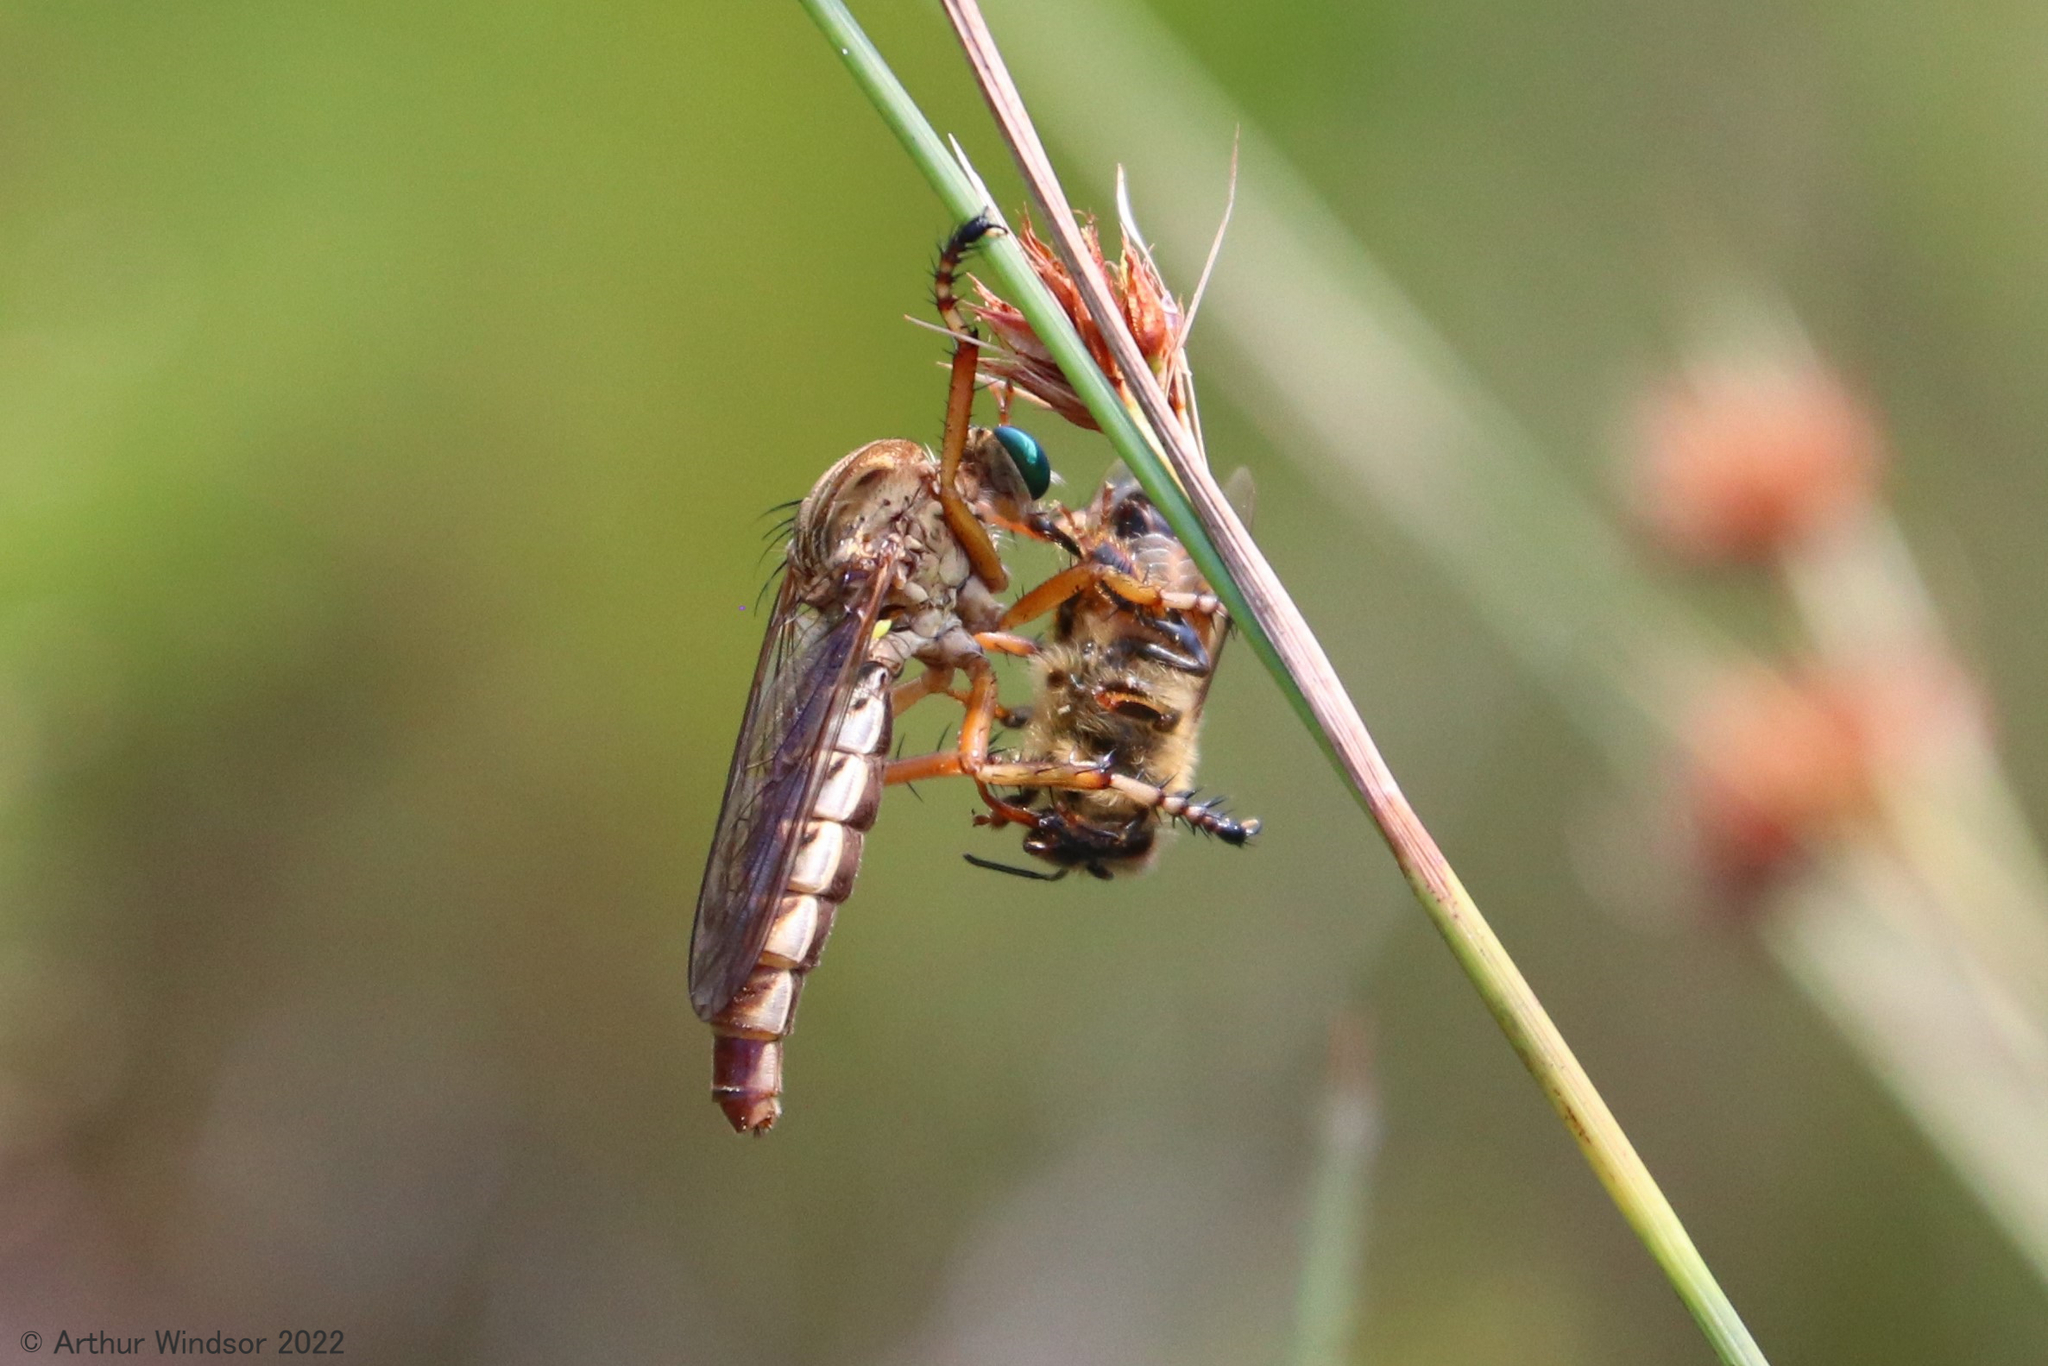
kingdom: Animalia
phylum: Arthropoda
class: Insecta
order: Diptera
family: Asilidae
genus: Diogmites
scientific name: Diogmites salutans
